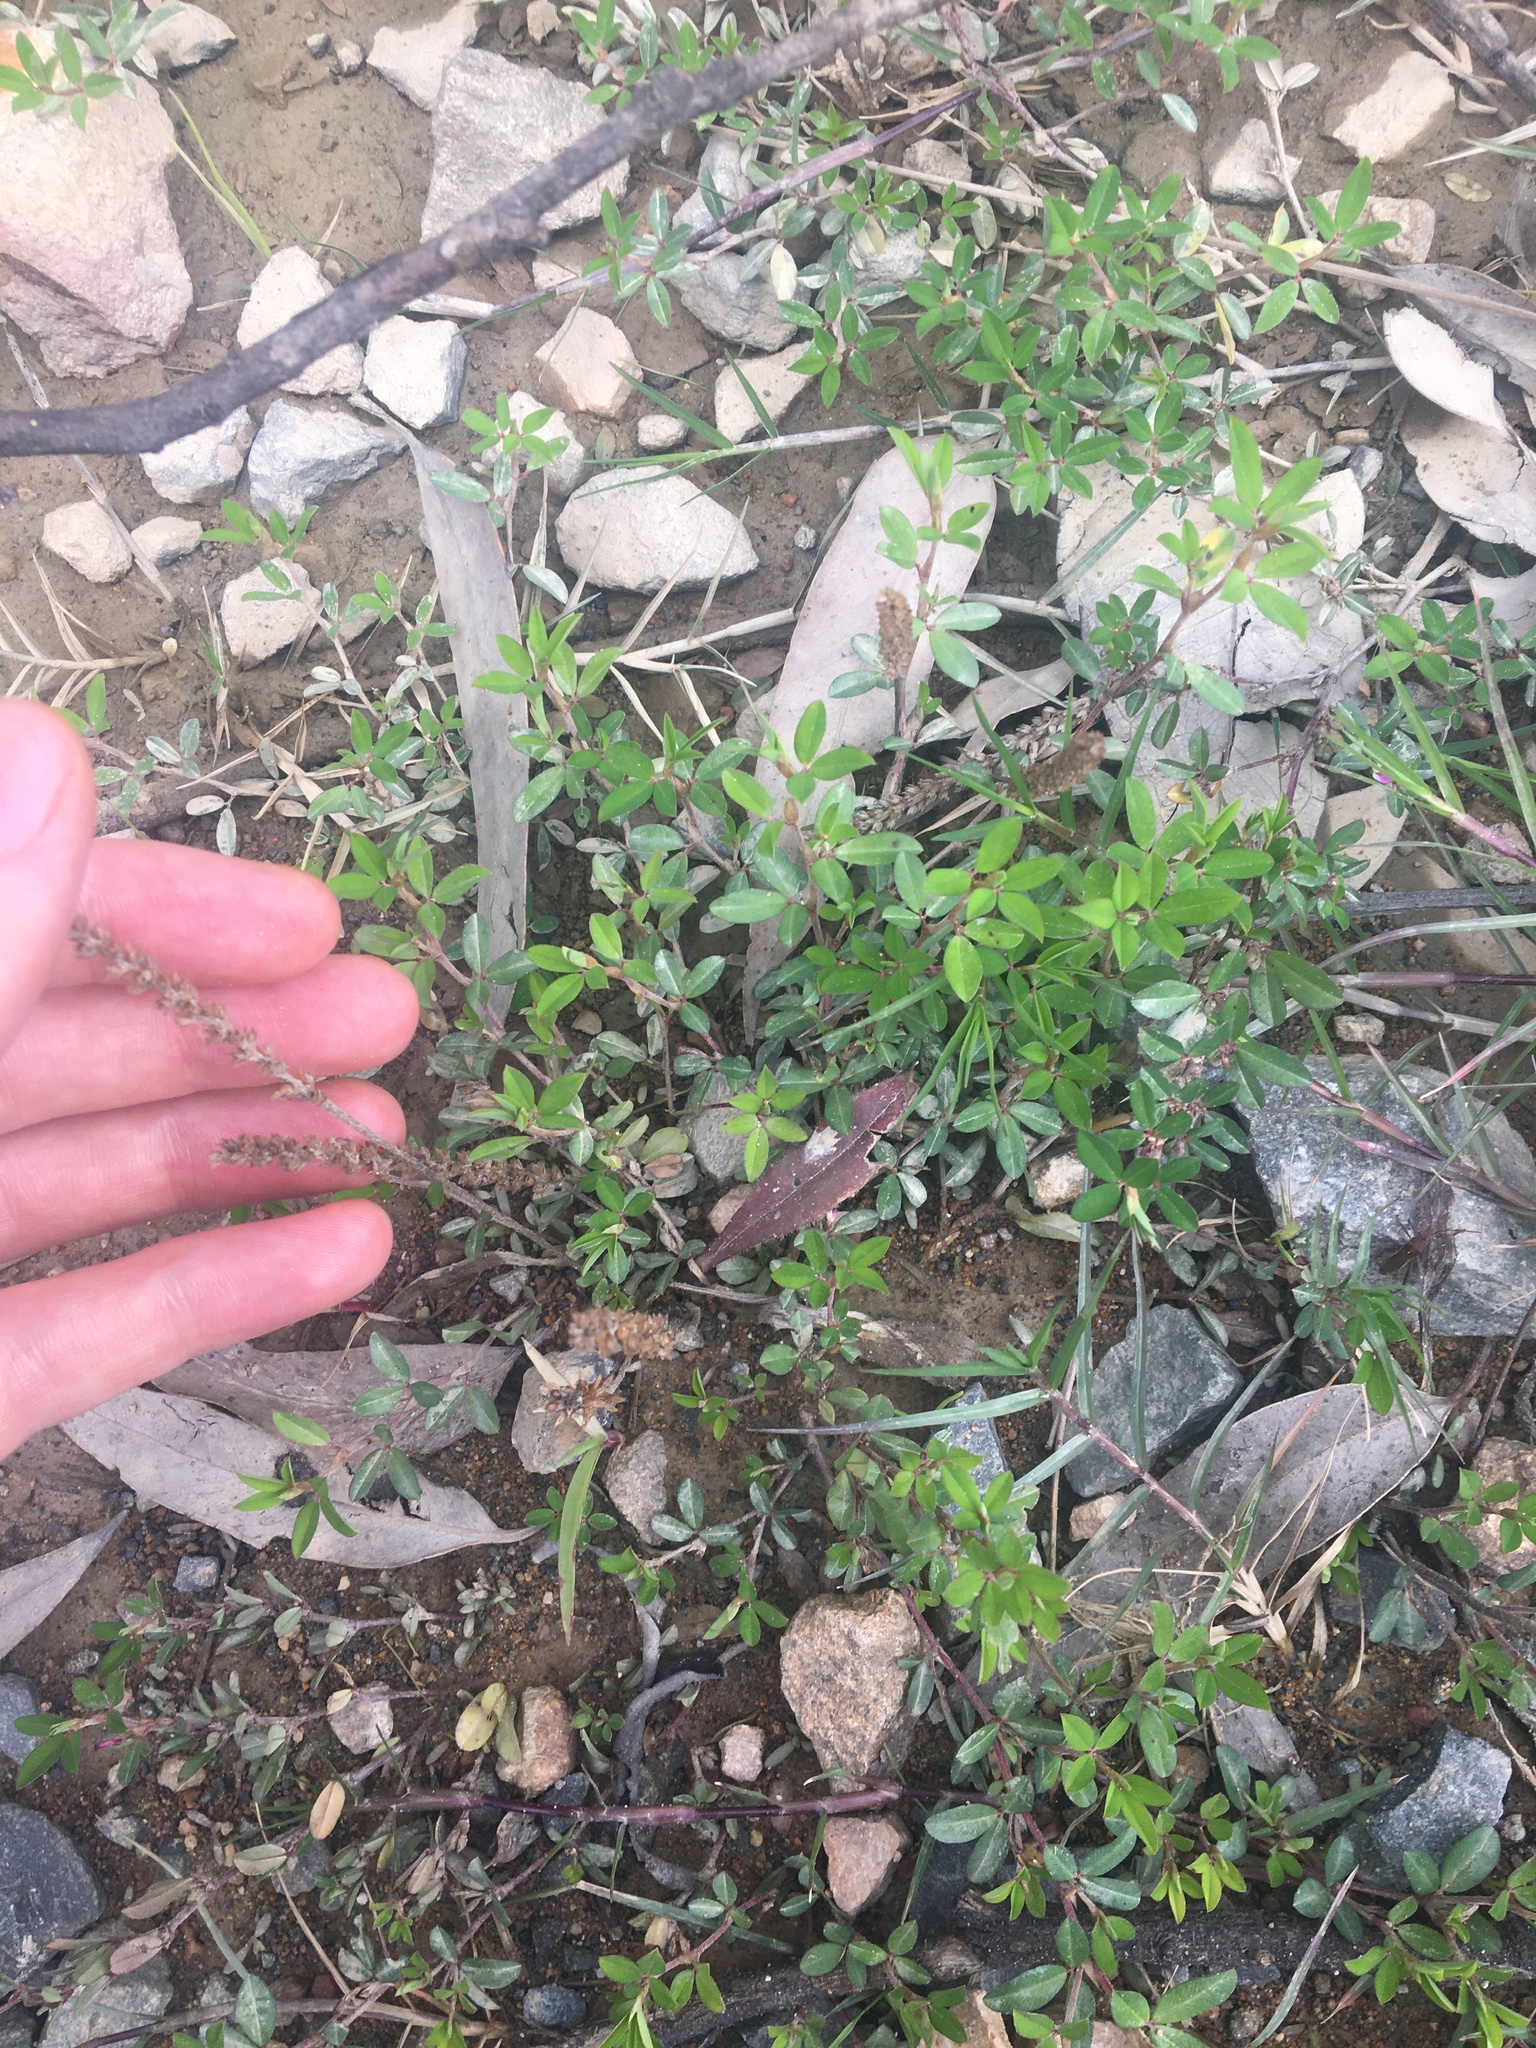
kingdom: Plantae
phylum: Tracheophyta
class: Magnoliopsida
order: Fabales
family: Fabaceae
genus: Kummerowia
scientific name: Kummerowia striata
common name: Japanese clover
